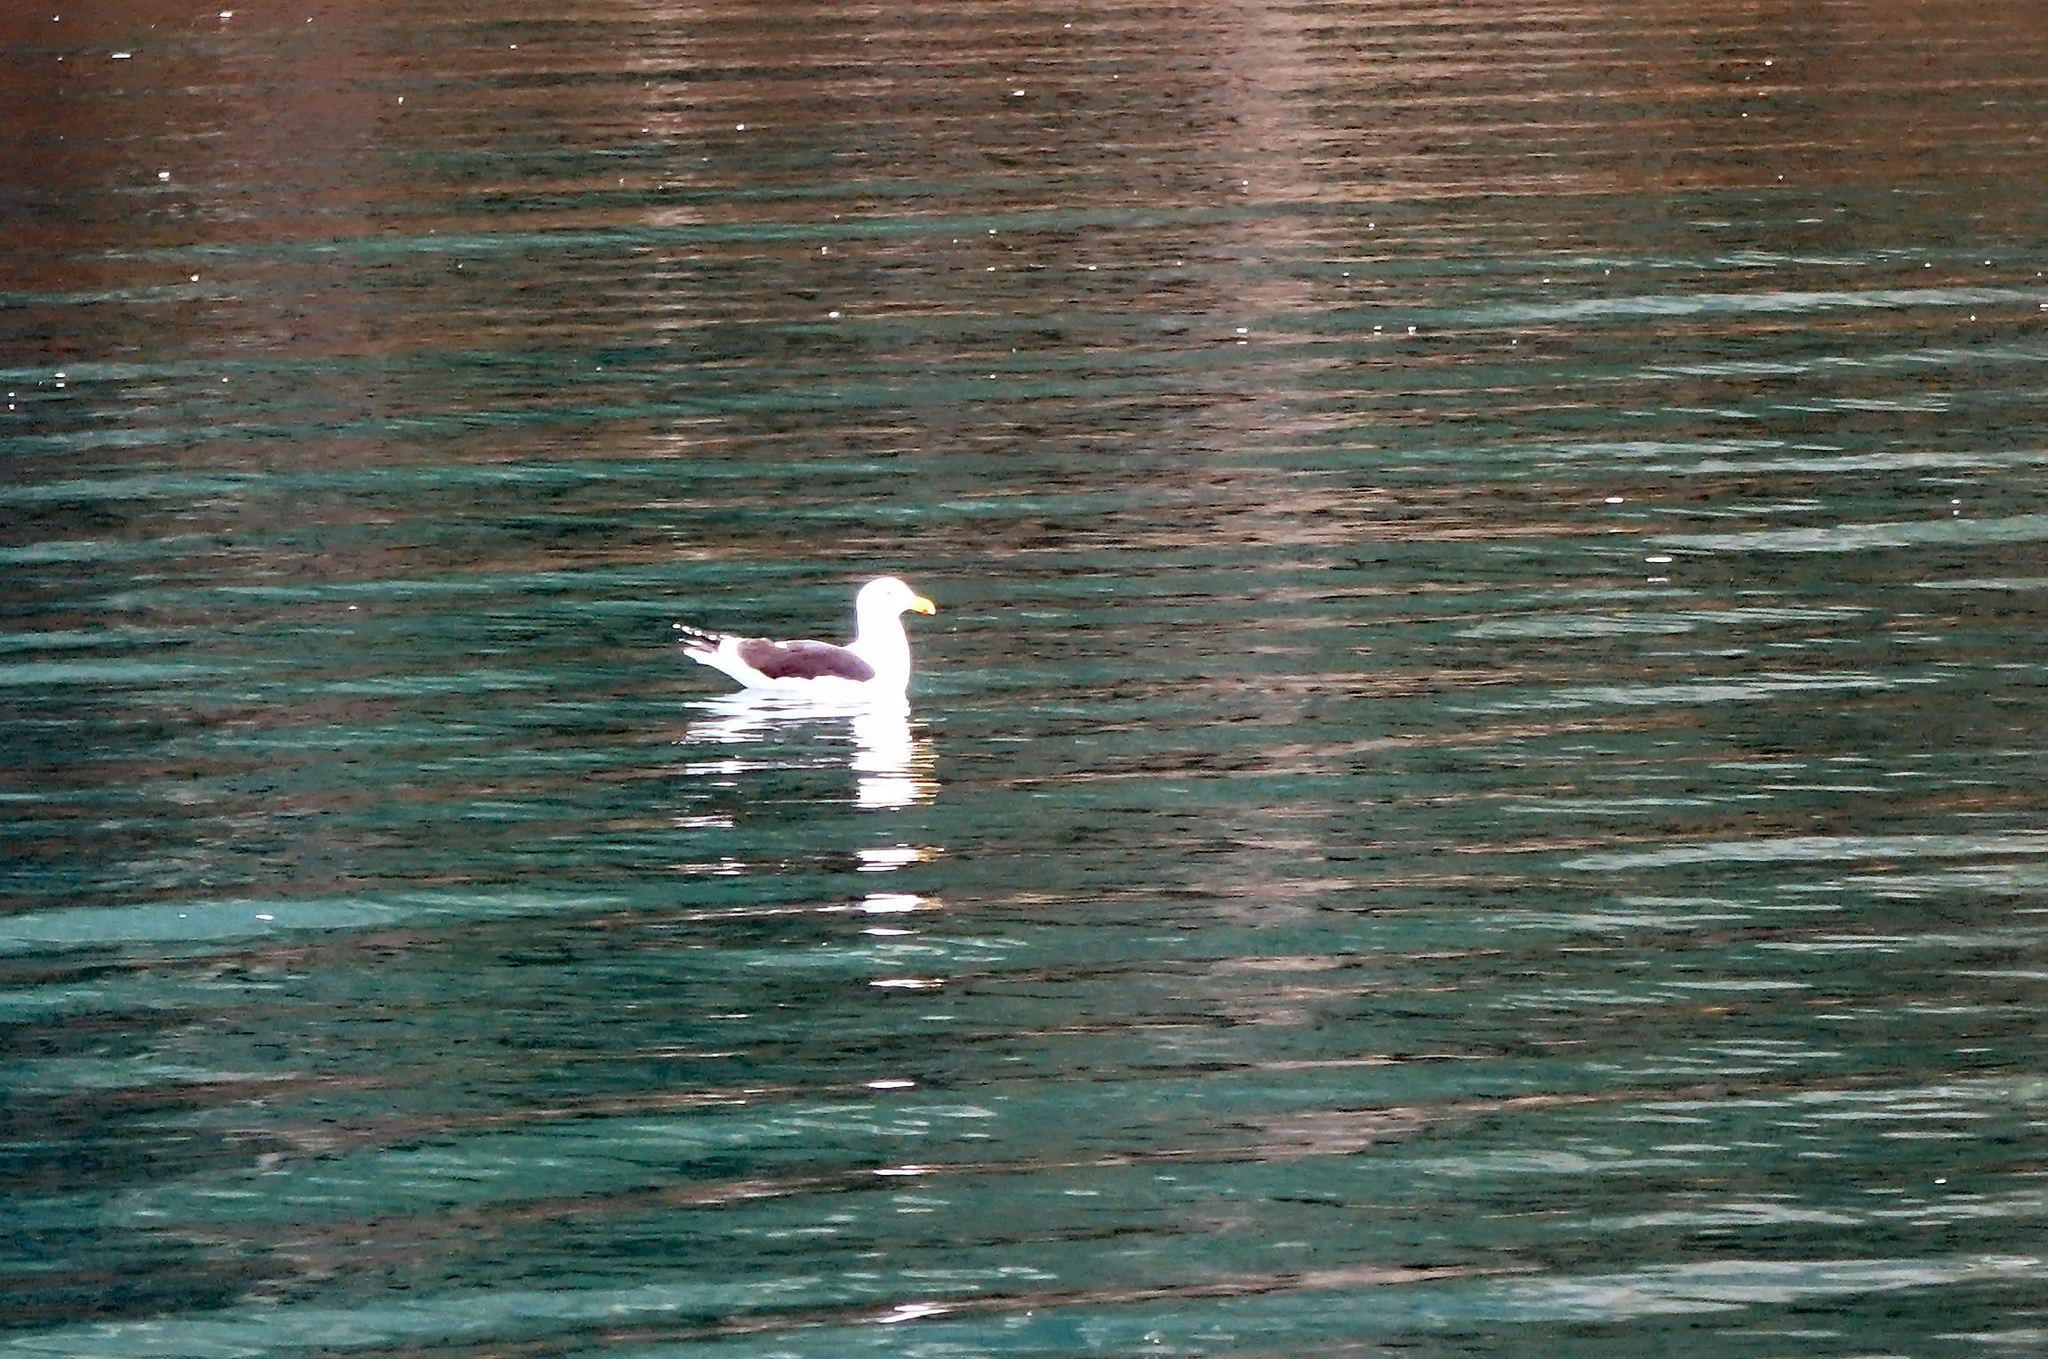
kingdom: Animalia
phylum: Chordata
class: Aves
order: Charadriiformes
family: Laridae
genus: Larus
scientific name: Larus dominicanus
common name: Kelp gull
